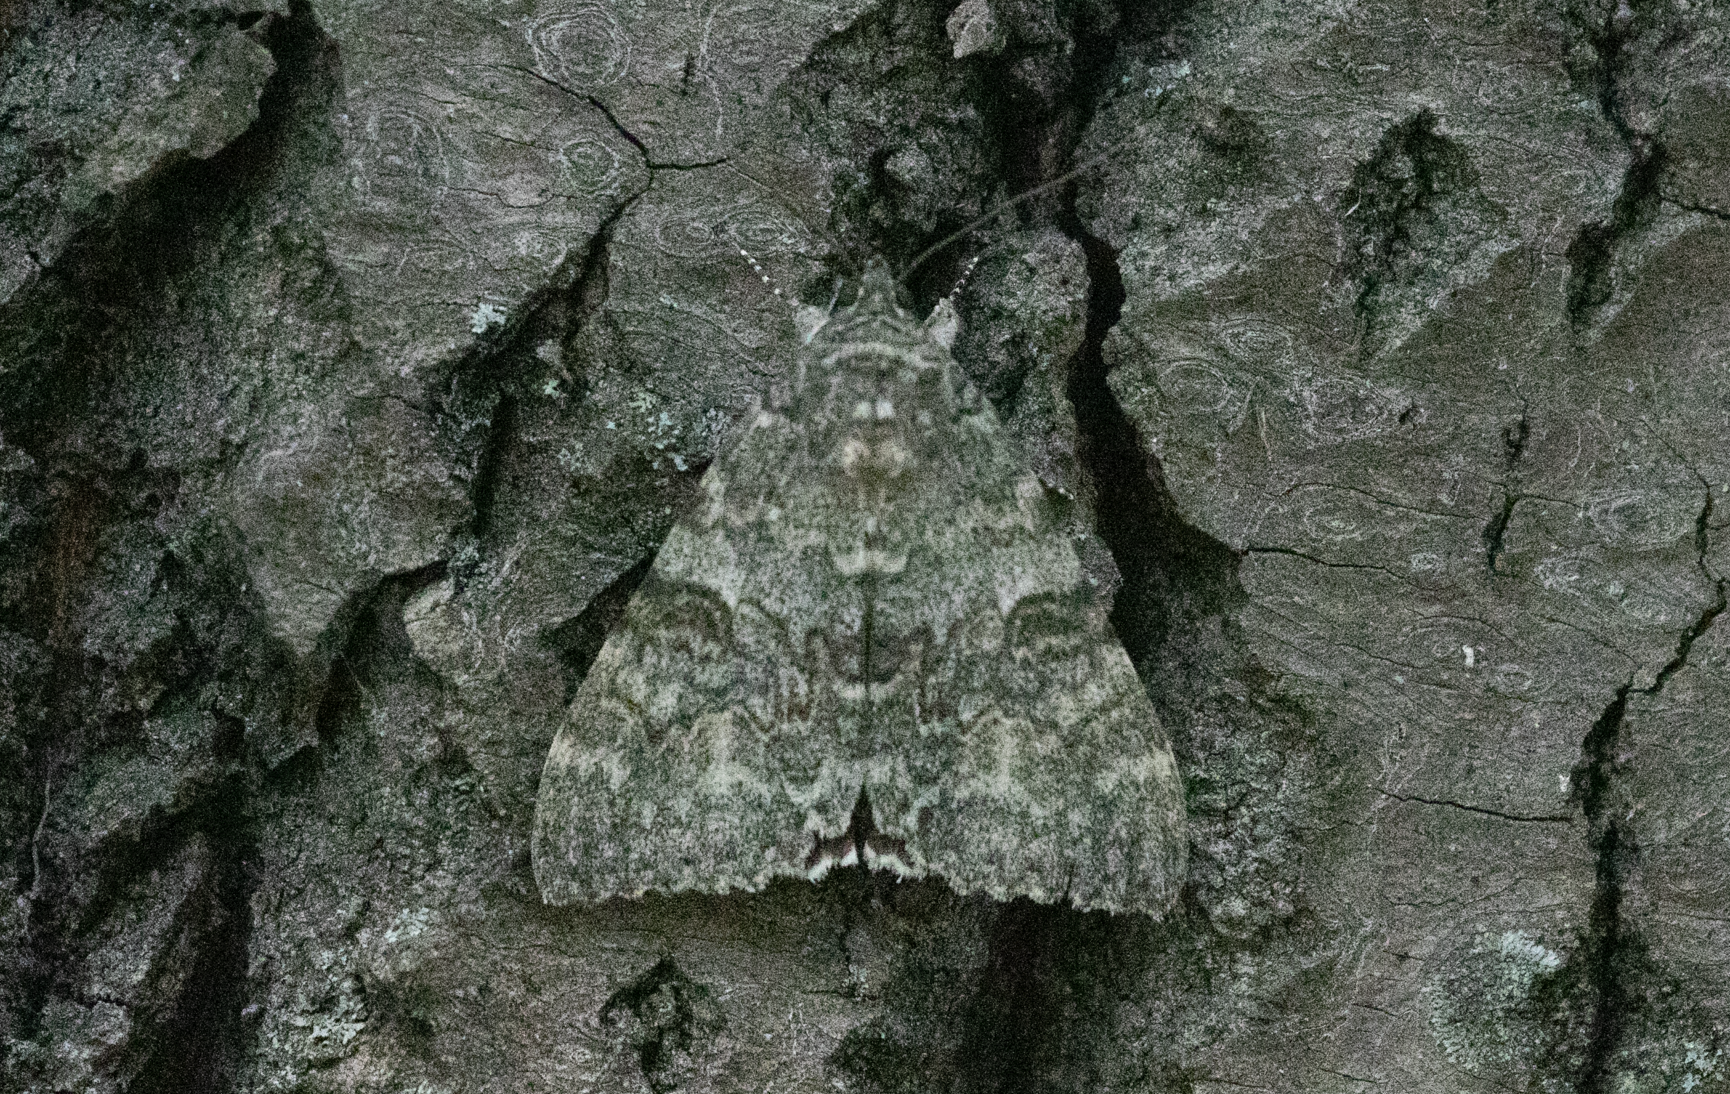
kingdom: Animalia
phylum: Arthropoda
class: Insecta
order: Lepidoptera
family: Erebidae
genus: Catocala
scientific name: Catocala nupta
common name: Red underwing
